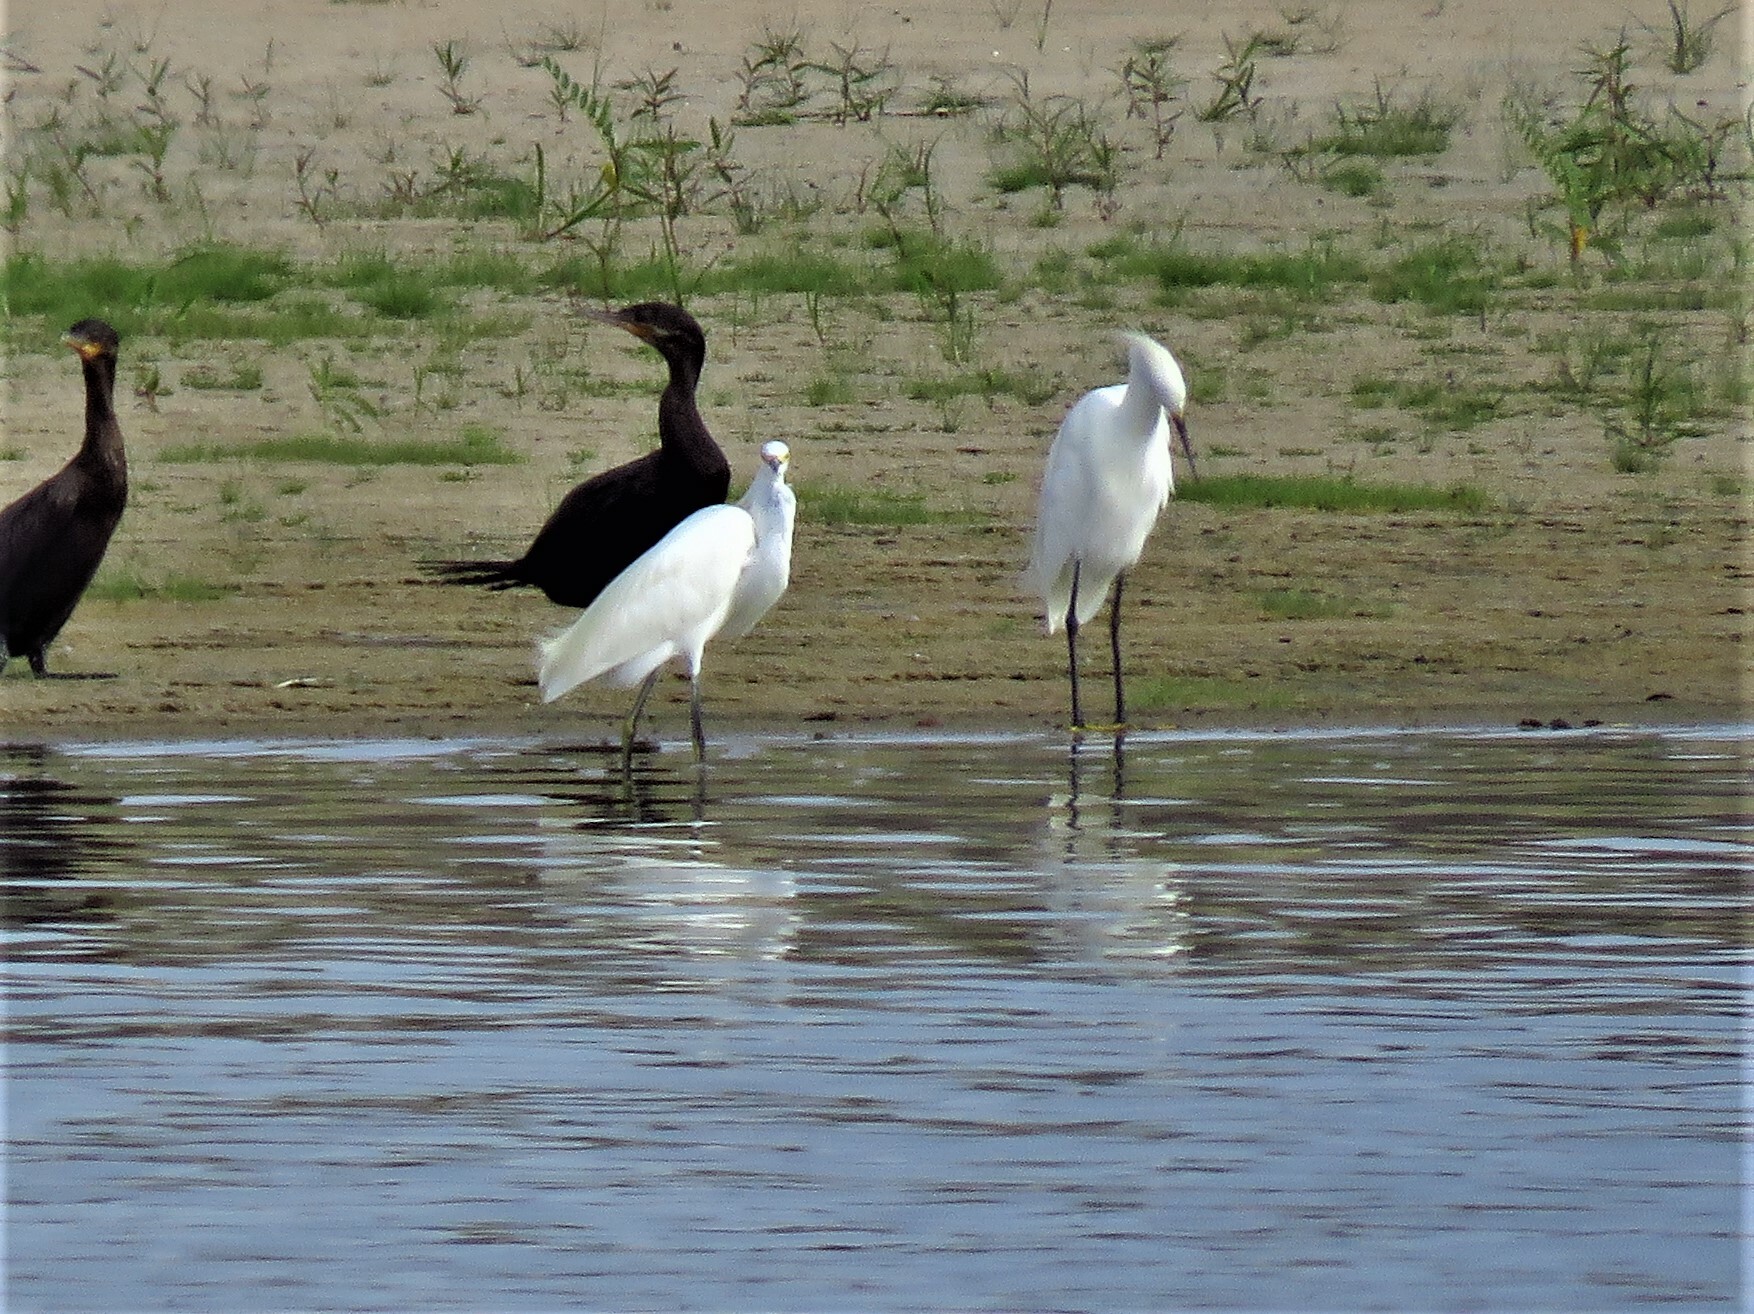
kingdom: Animalia
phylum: Chordata
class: Aves
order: Pelecaniformes
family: Ardeidae
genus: Egretta
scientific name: Egretta thula
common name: Snowy egret
